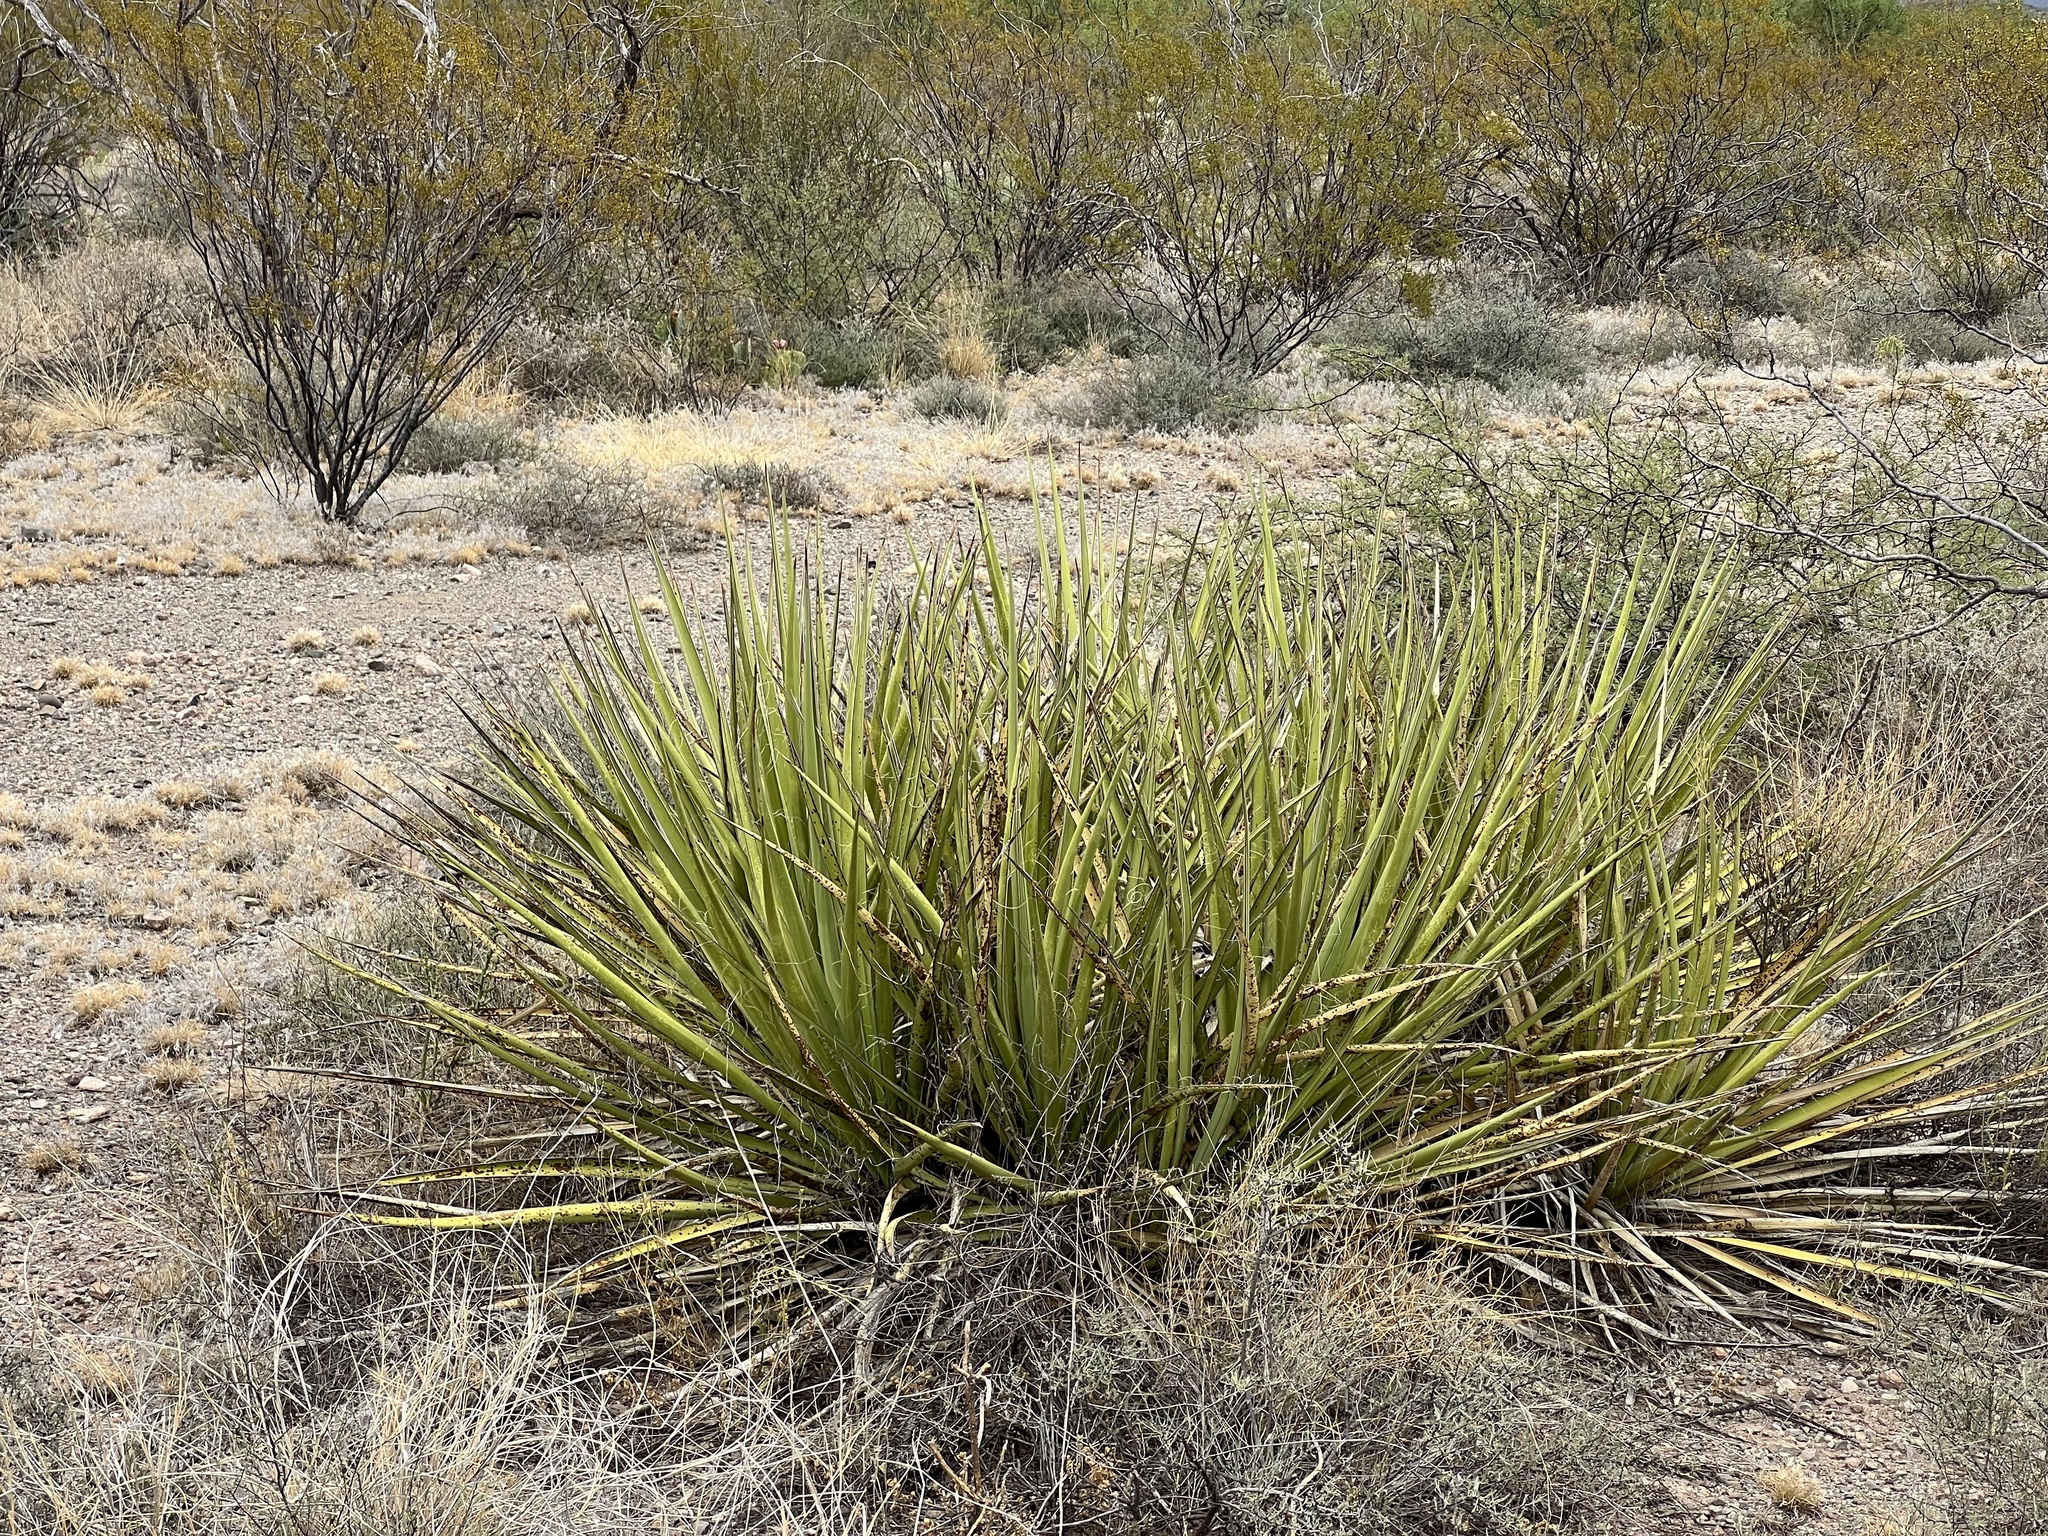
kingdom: Plantae
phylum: Tracheophyta
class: Liliopsida
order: Asparagales
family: Asparagaceae
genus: Yucca
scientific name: Yucca baccata
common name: Banana yucca
